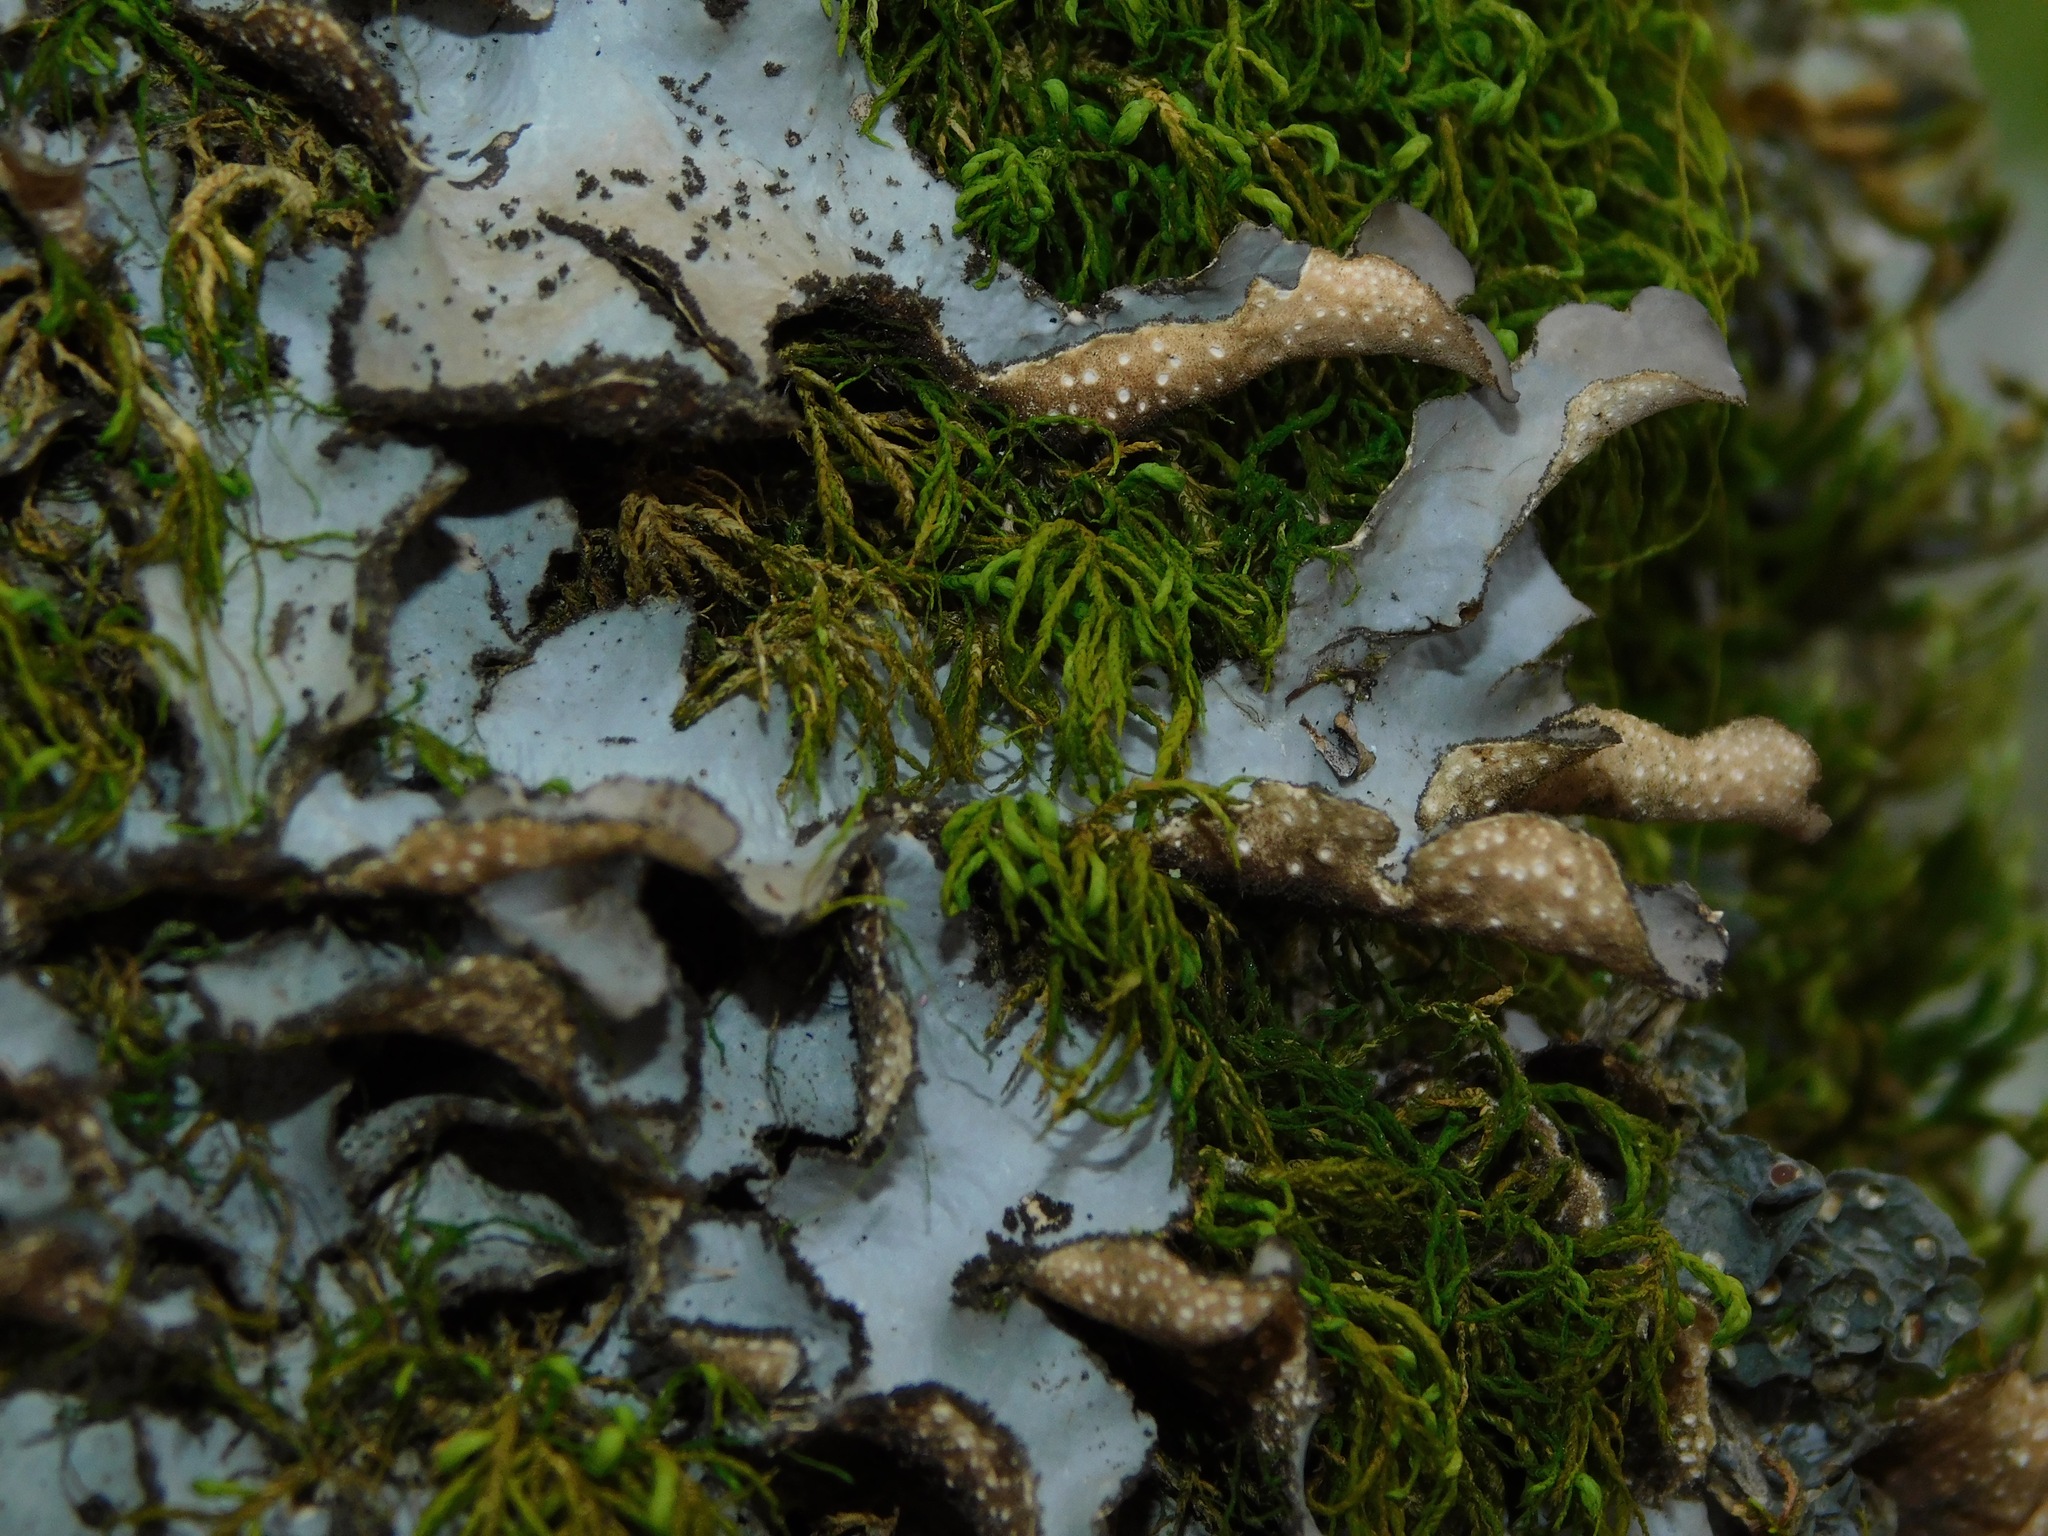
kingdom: Fungi
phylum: Ascomycota
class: Lecanoromycetes
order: Peltigerales
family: Lobariaceae
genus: Sticta
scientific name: Sticta beauvoisii
